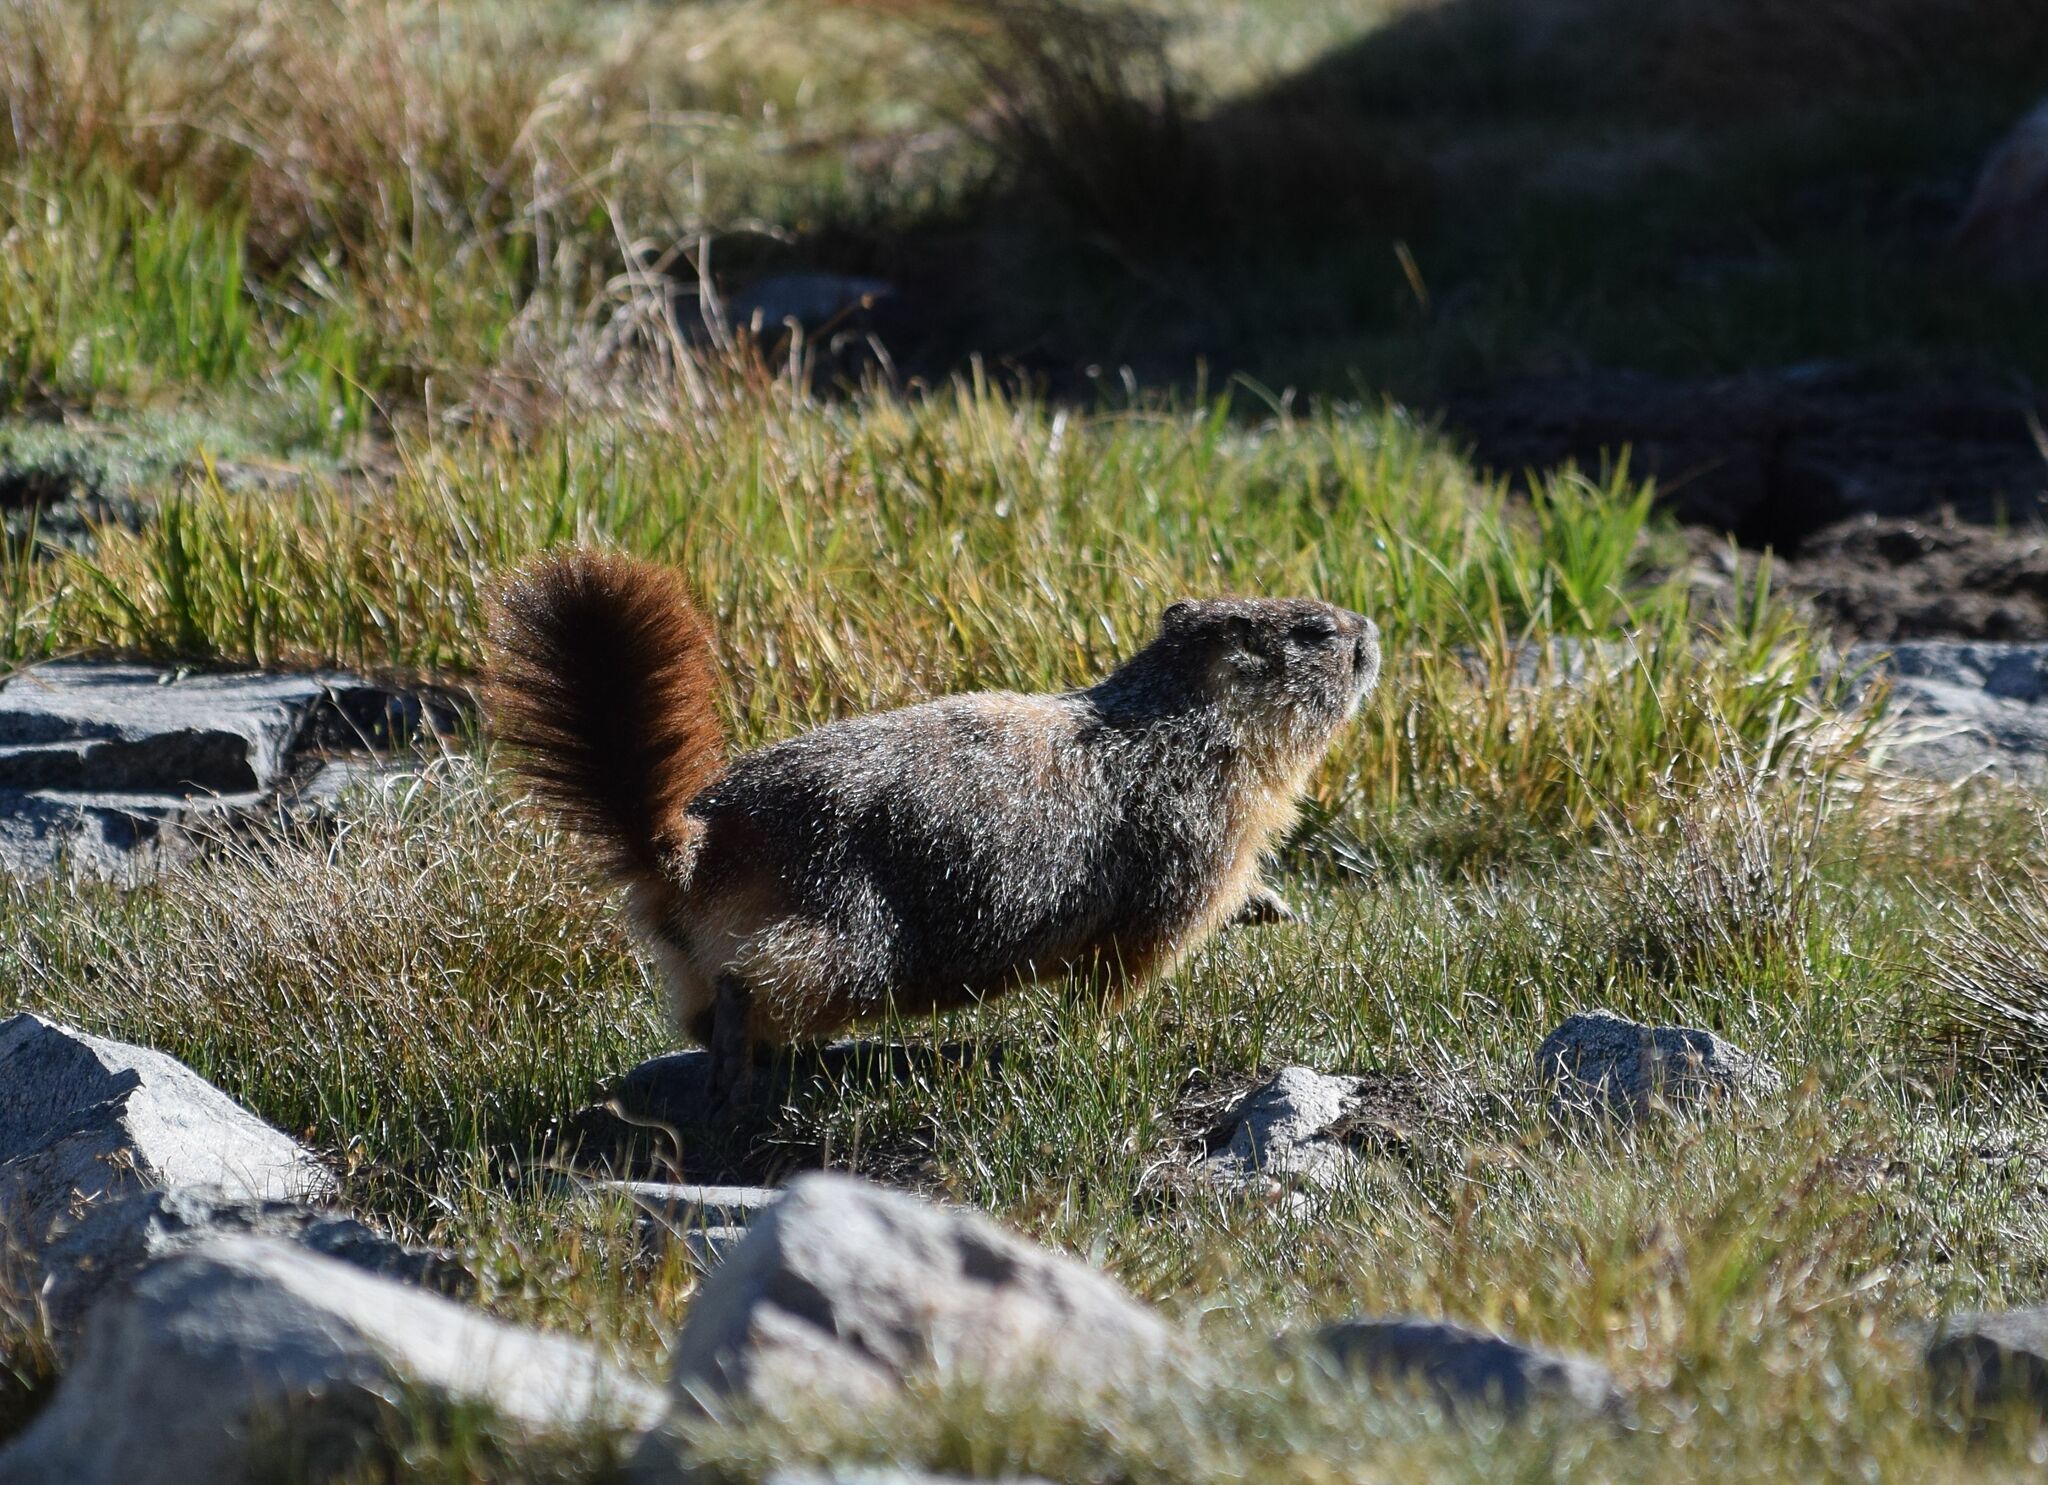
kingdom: Animalia
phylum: Chordata
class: Mammalia
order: Rodentia
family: Sciuridae
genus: Marmota
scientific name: Marmota flaviventris
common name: Yellow-bellied marmot
